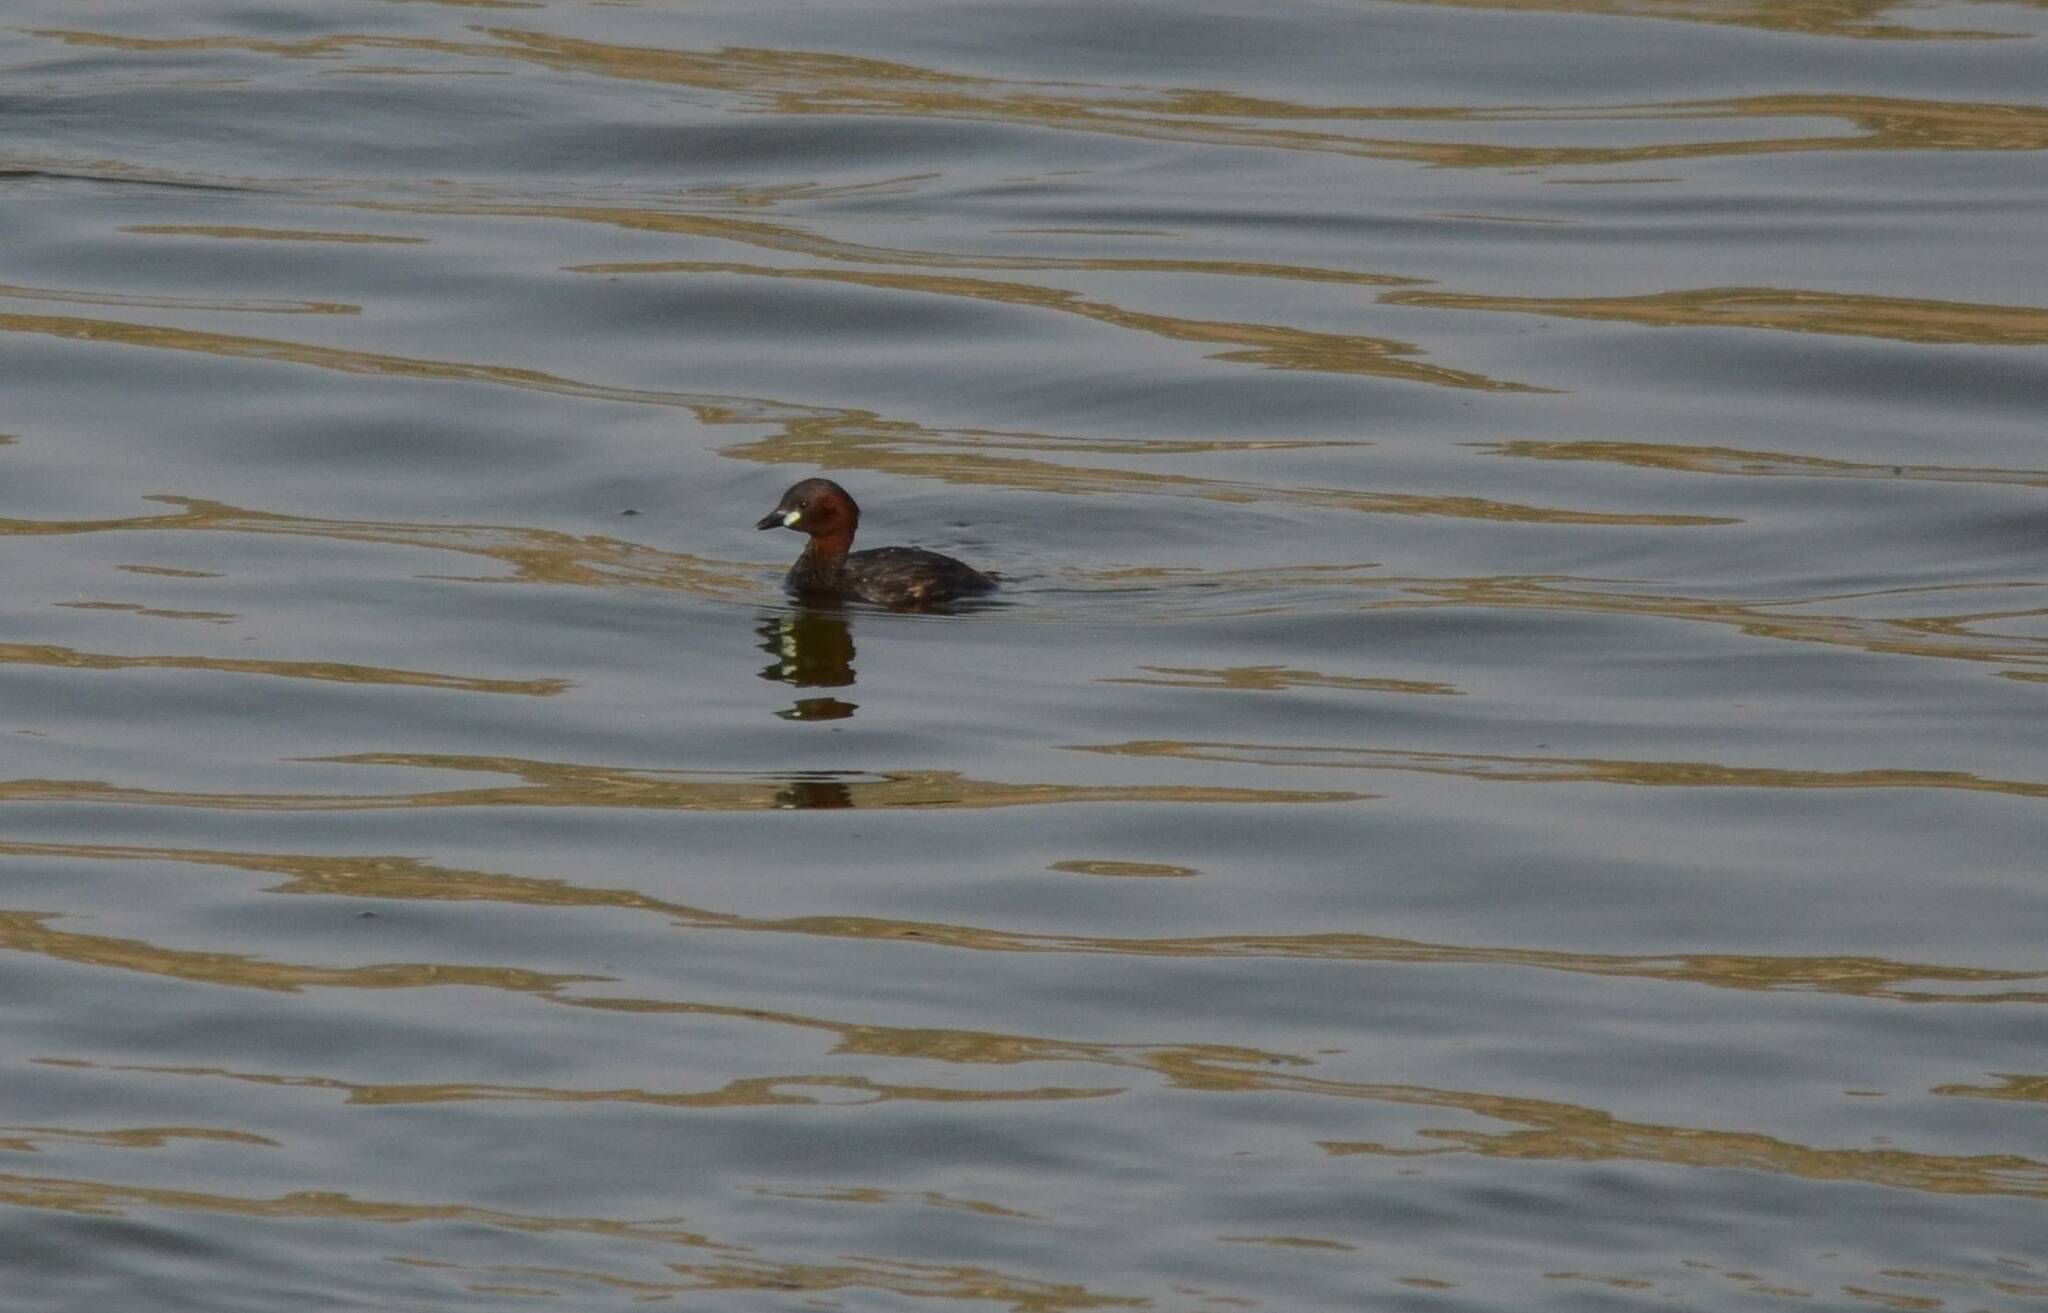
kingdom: Animalia
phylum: Chordata
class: Aves
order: Podicipediformes
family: Podicipedidae
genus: Tachybaptus
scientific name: Tachybaptus ruficollis
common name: Little grebe
